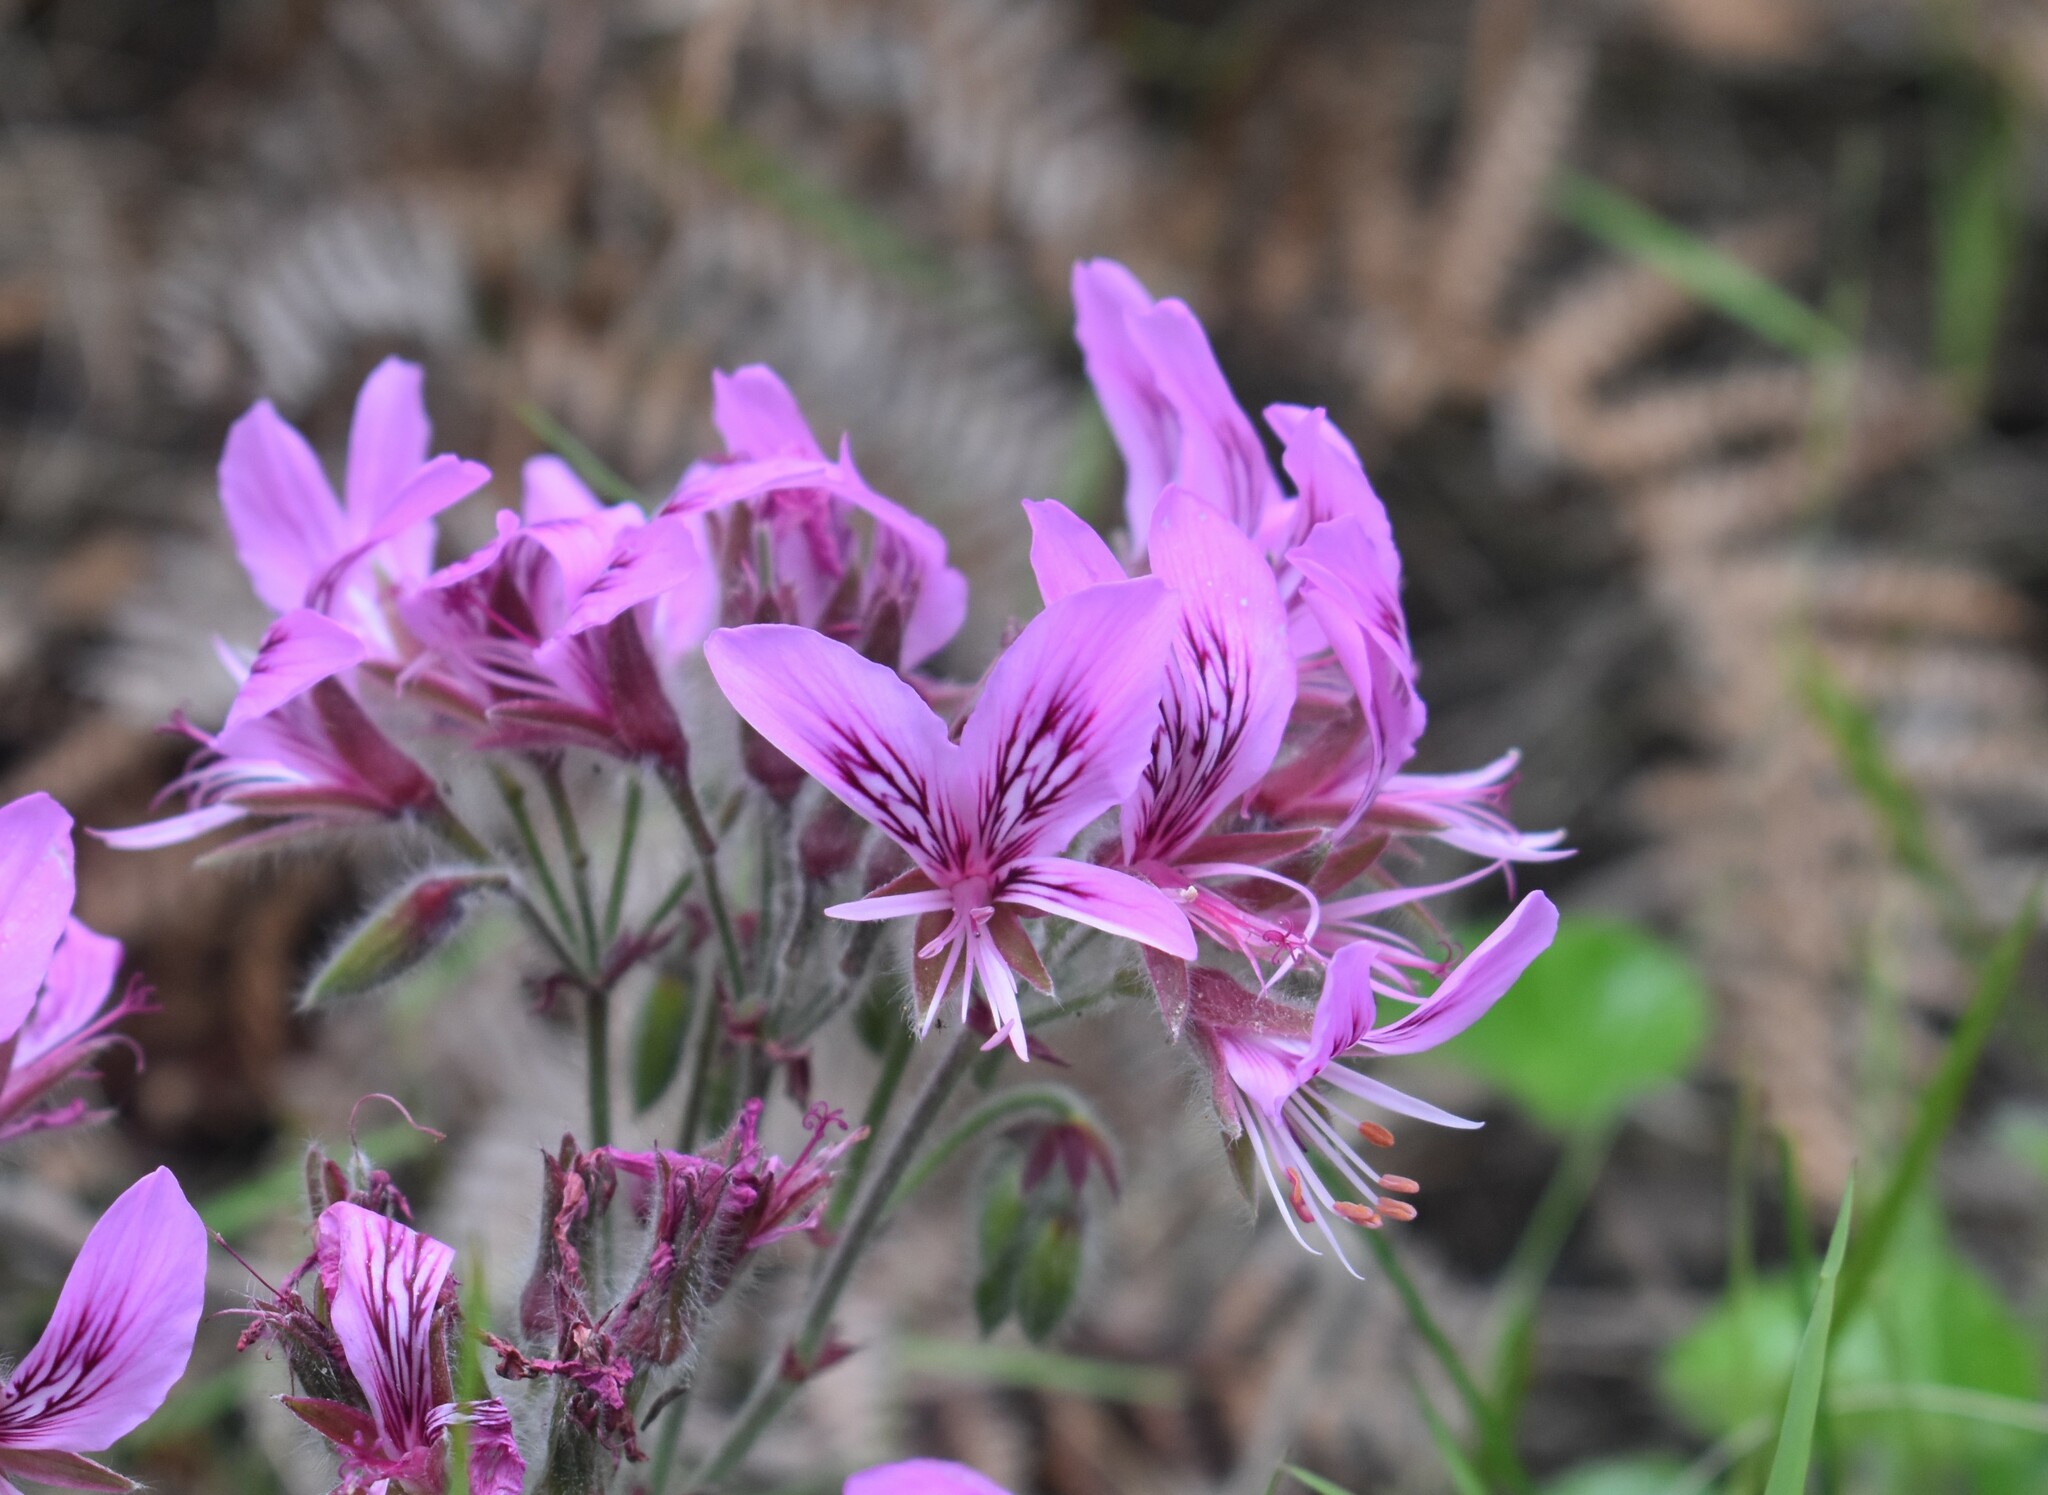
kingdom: Plantae
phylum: Tracheophyta
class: Magnoliopsida
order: Geraniales
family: Geraniaceae
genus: Pelargonium
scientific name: Pelargonium cordifolium
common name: Heart-leaf pelargonium
